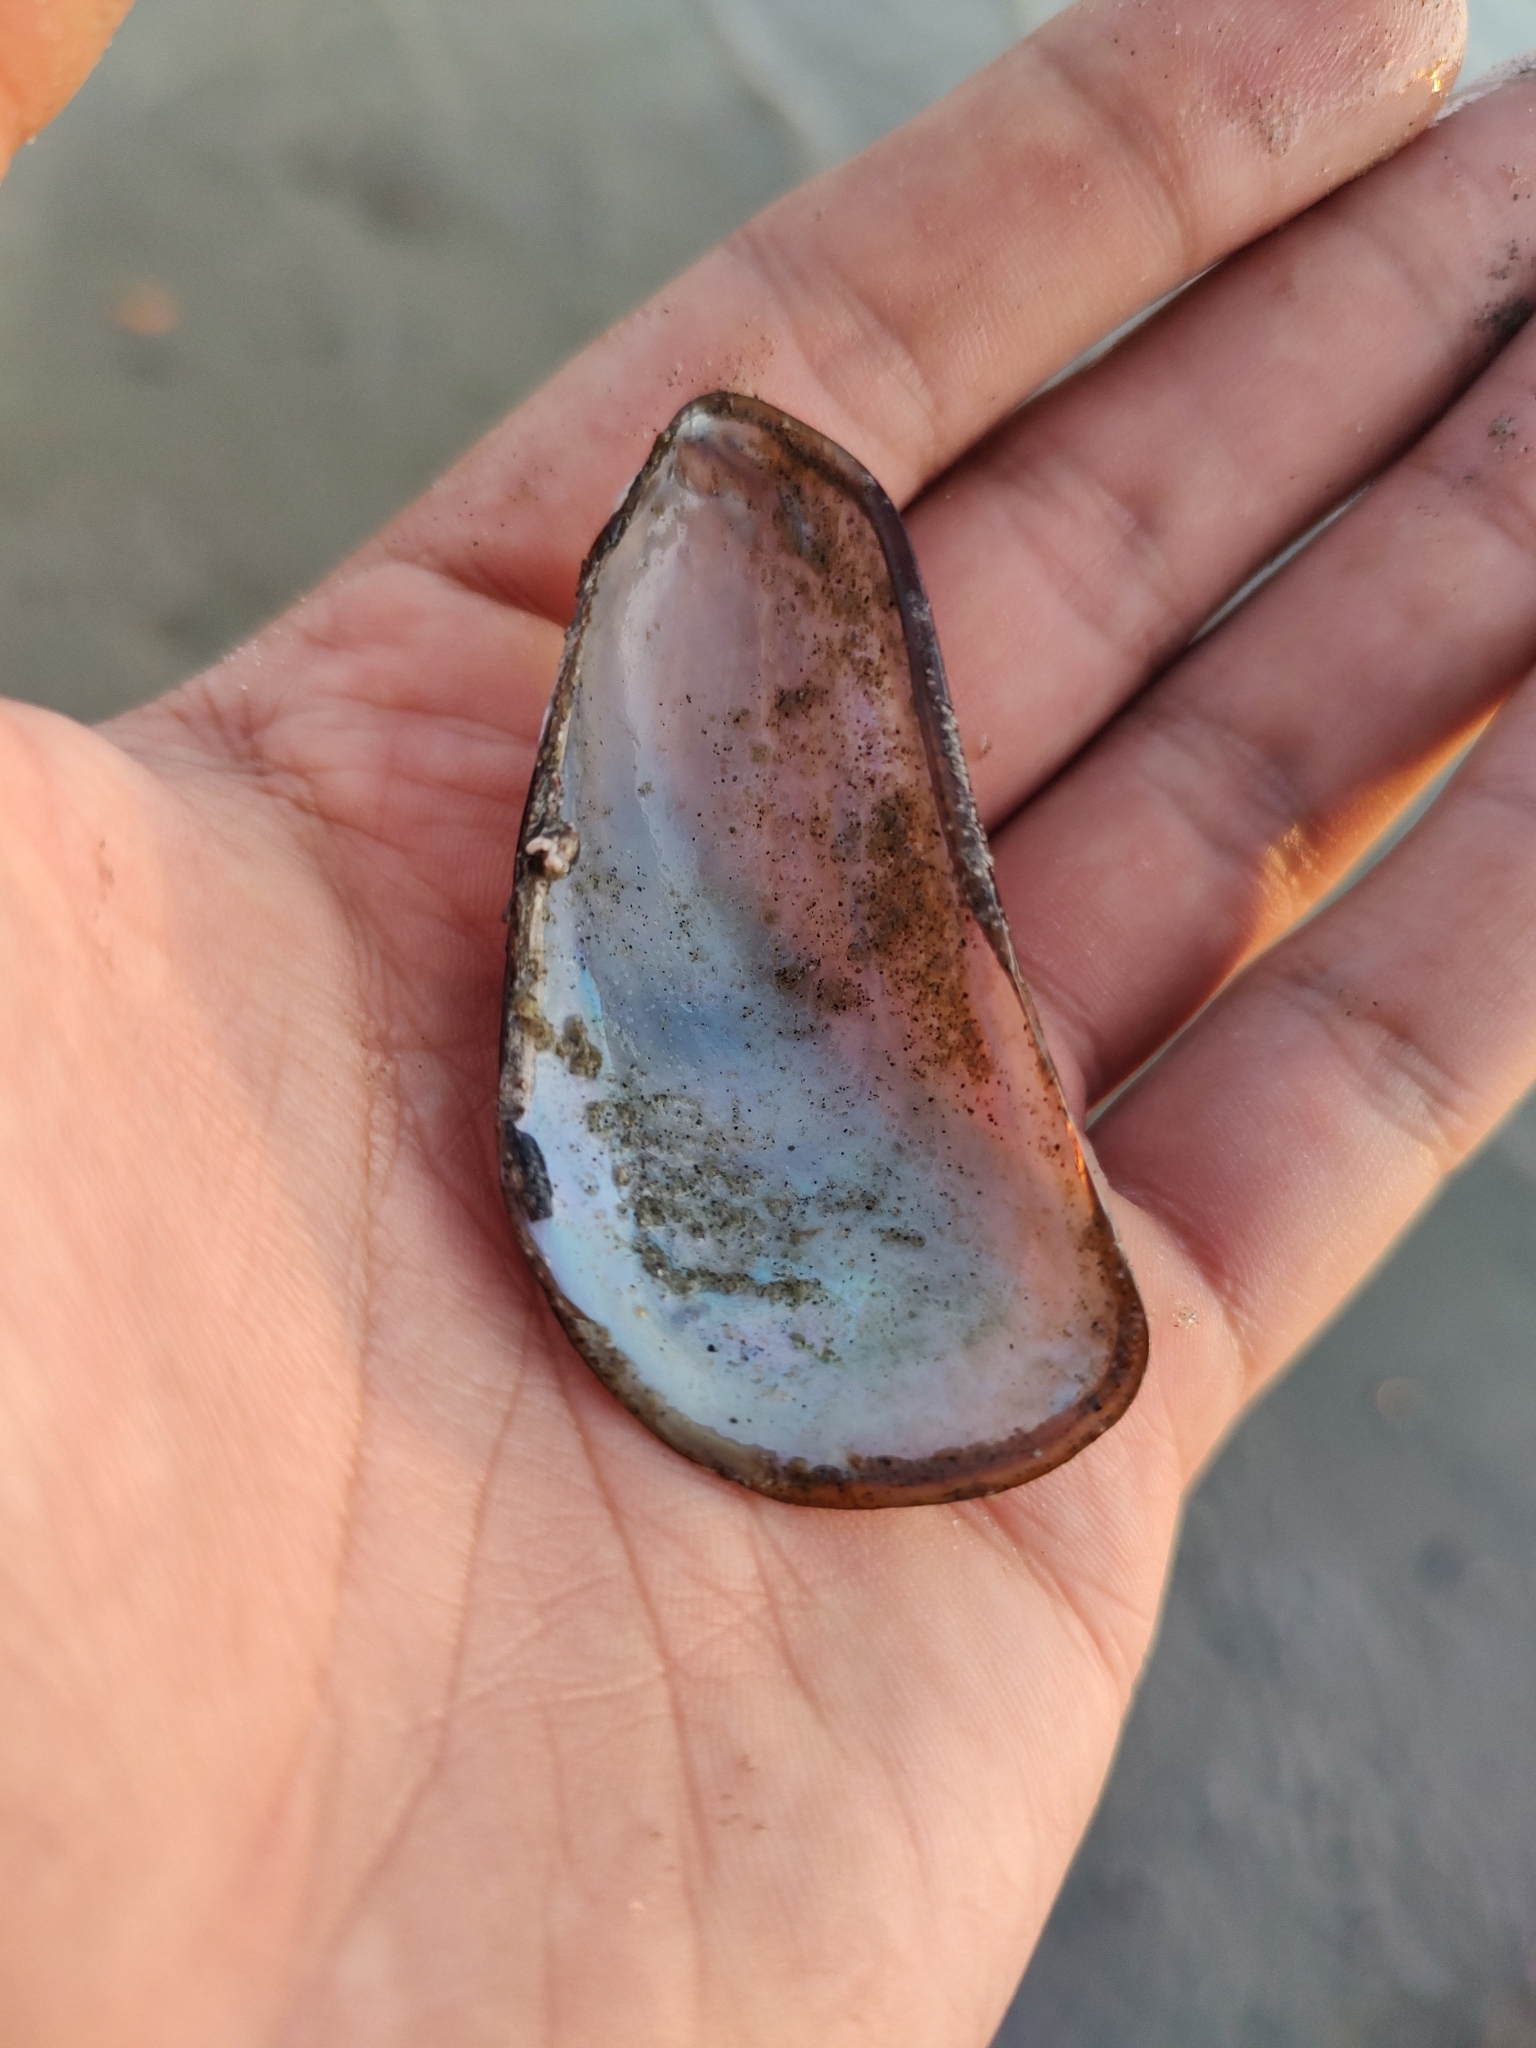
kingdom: Animalia
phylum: Mollusca
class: Bivalvia
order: Mytilida
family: Mytilidae
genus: Mytella
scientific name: Mytella guyanensis
